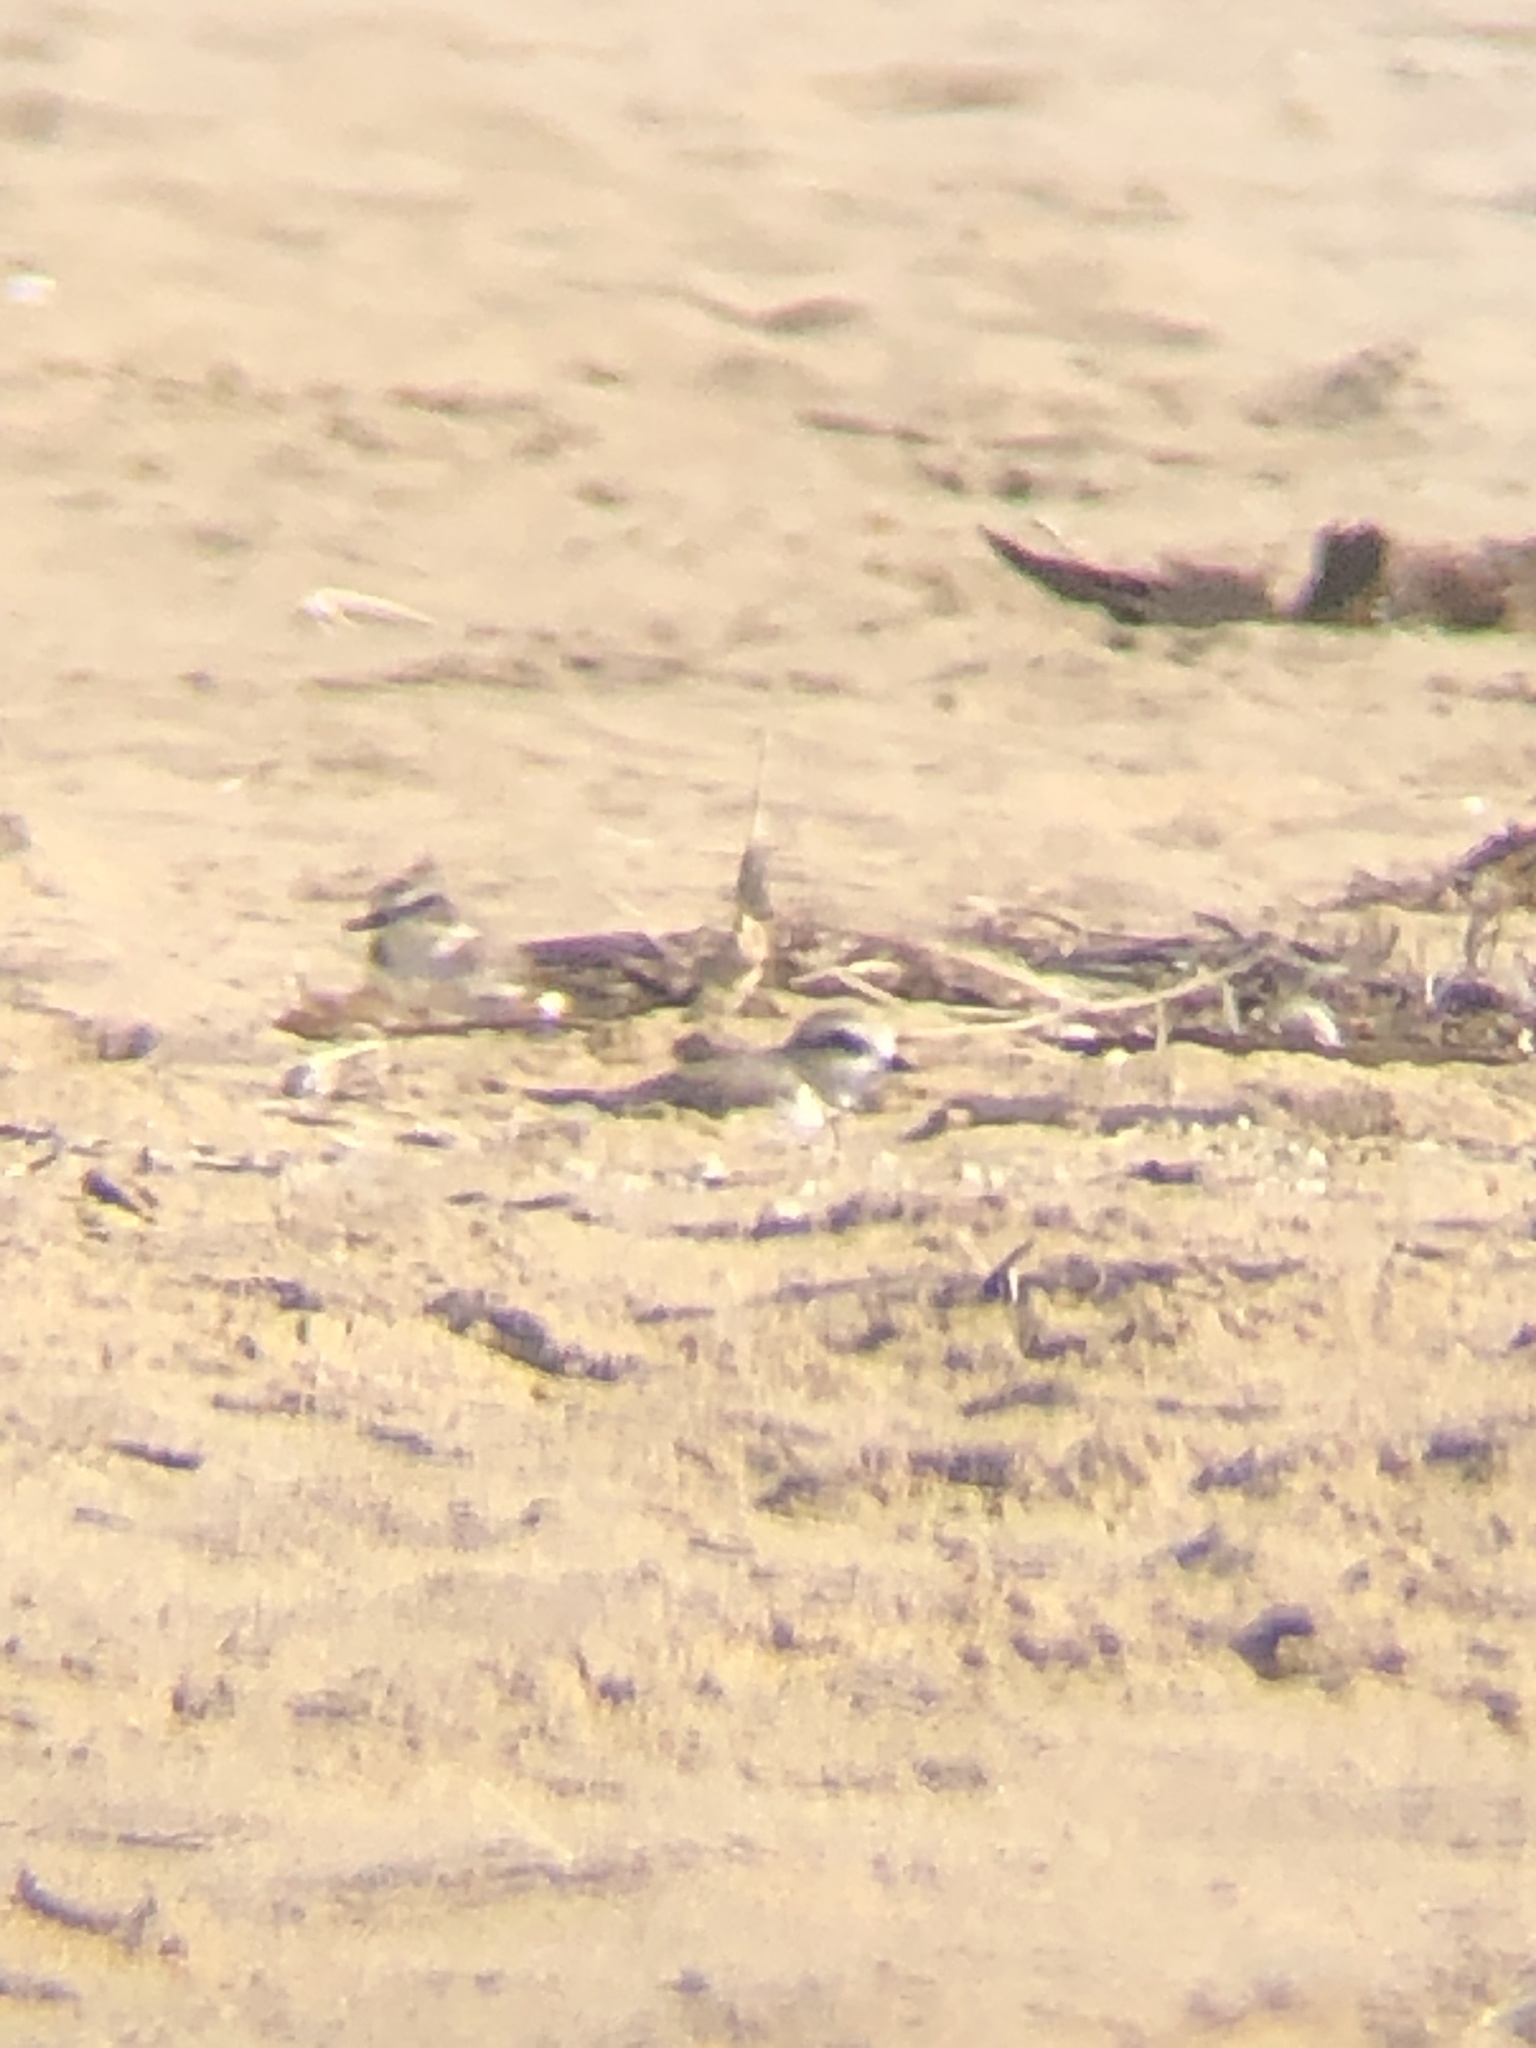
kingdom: Animalia
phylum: Chordata
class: Aves
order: Charadriiformes
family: Charadriidae
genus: Anarhynchus
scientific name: Anarhynchus
